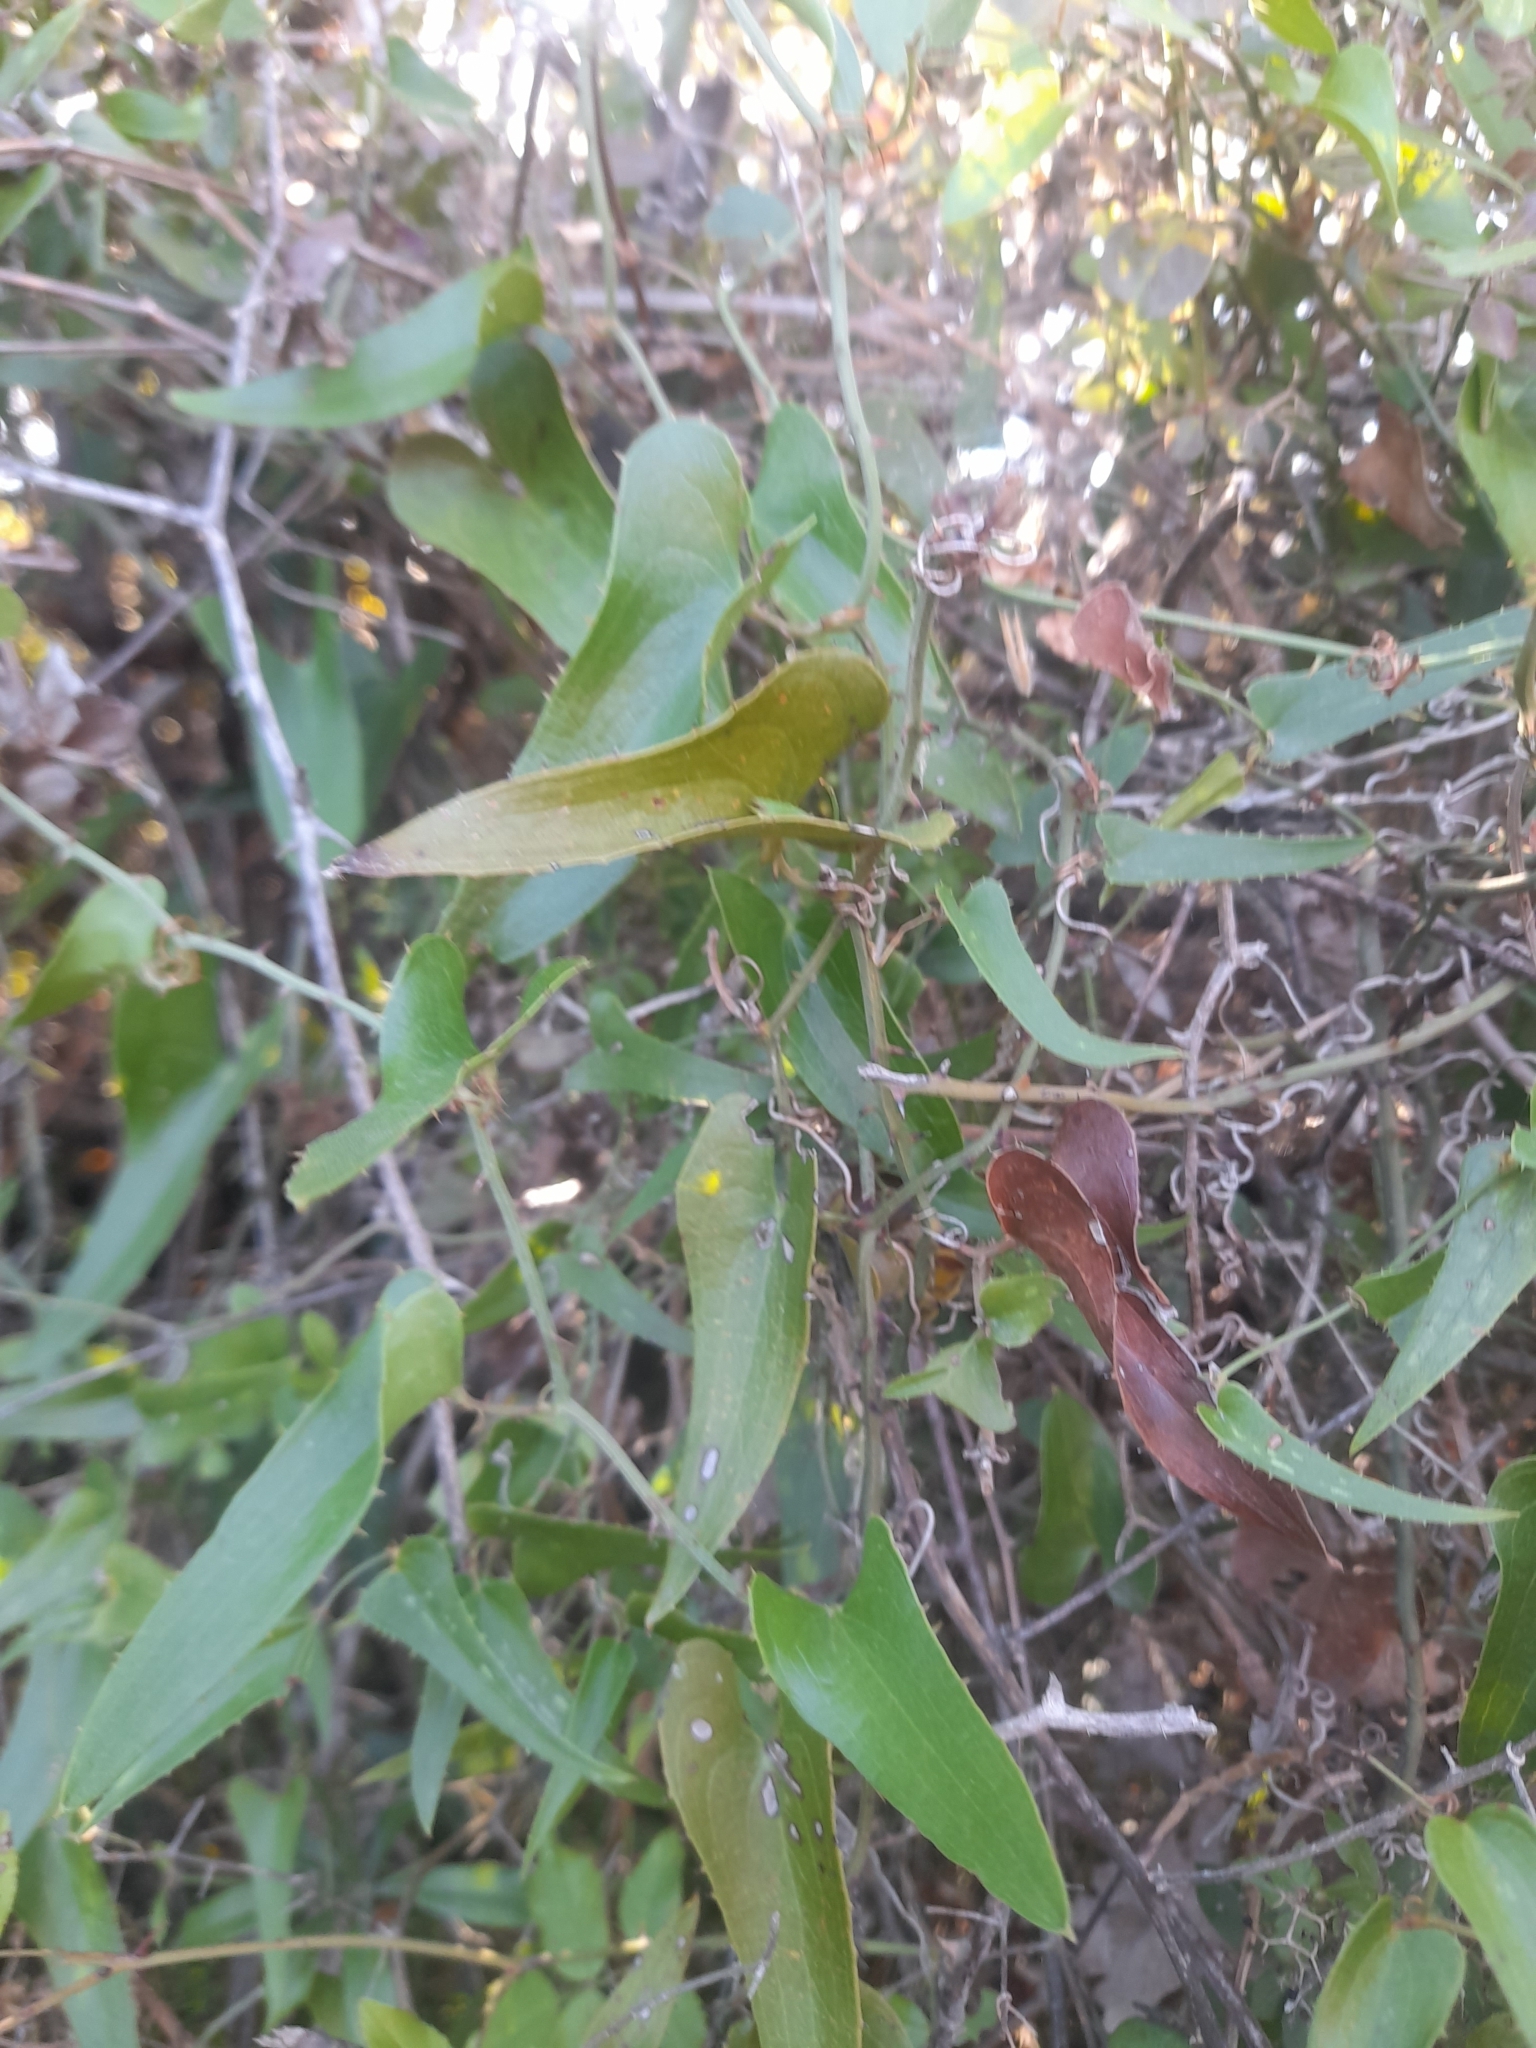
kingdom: Plantae
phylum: Tracheophyta
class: Liliopsida
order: Liliales
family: Smilacaceae
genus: Smilax
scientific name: Smilax aspera
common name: Common smilax
